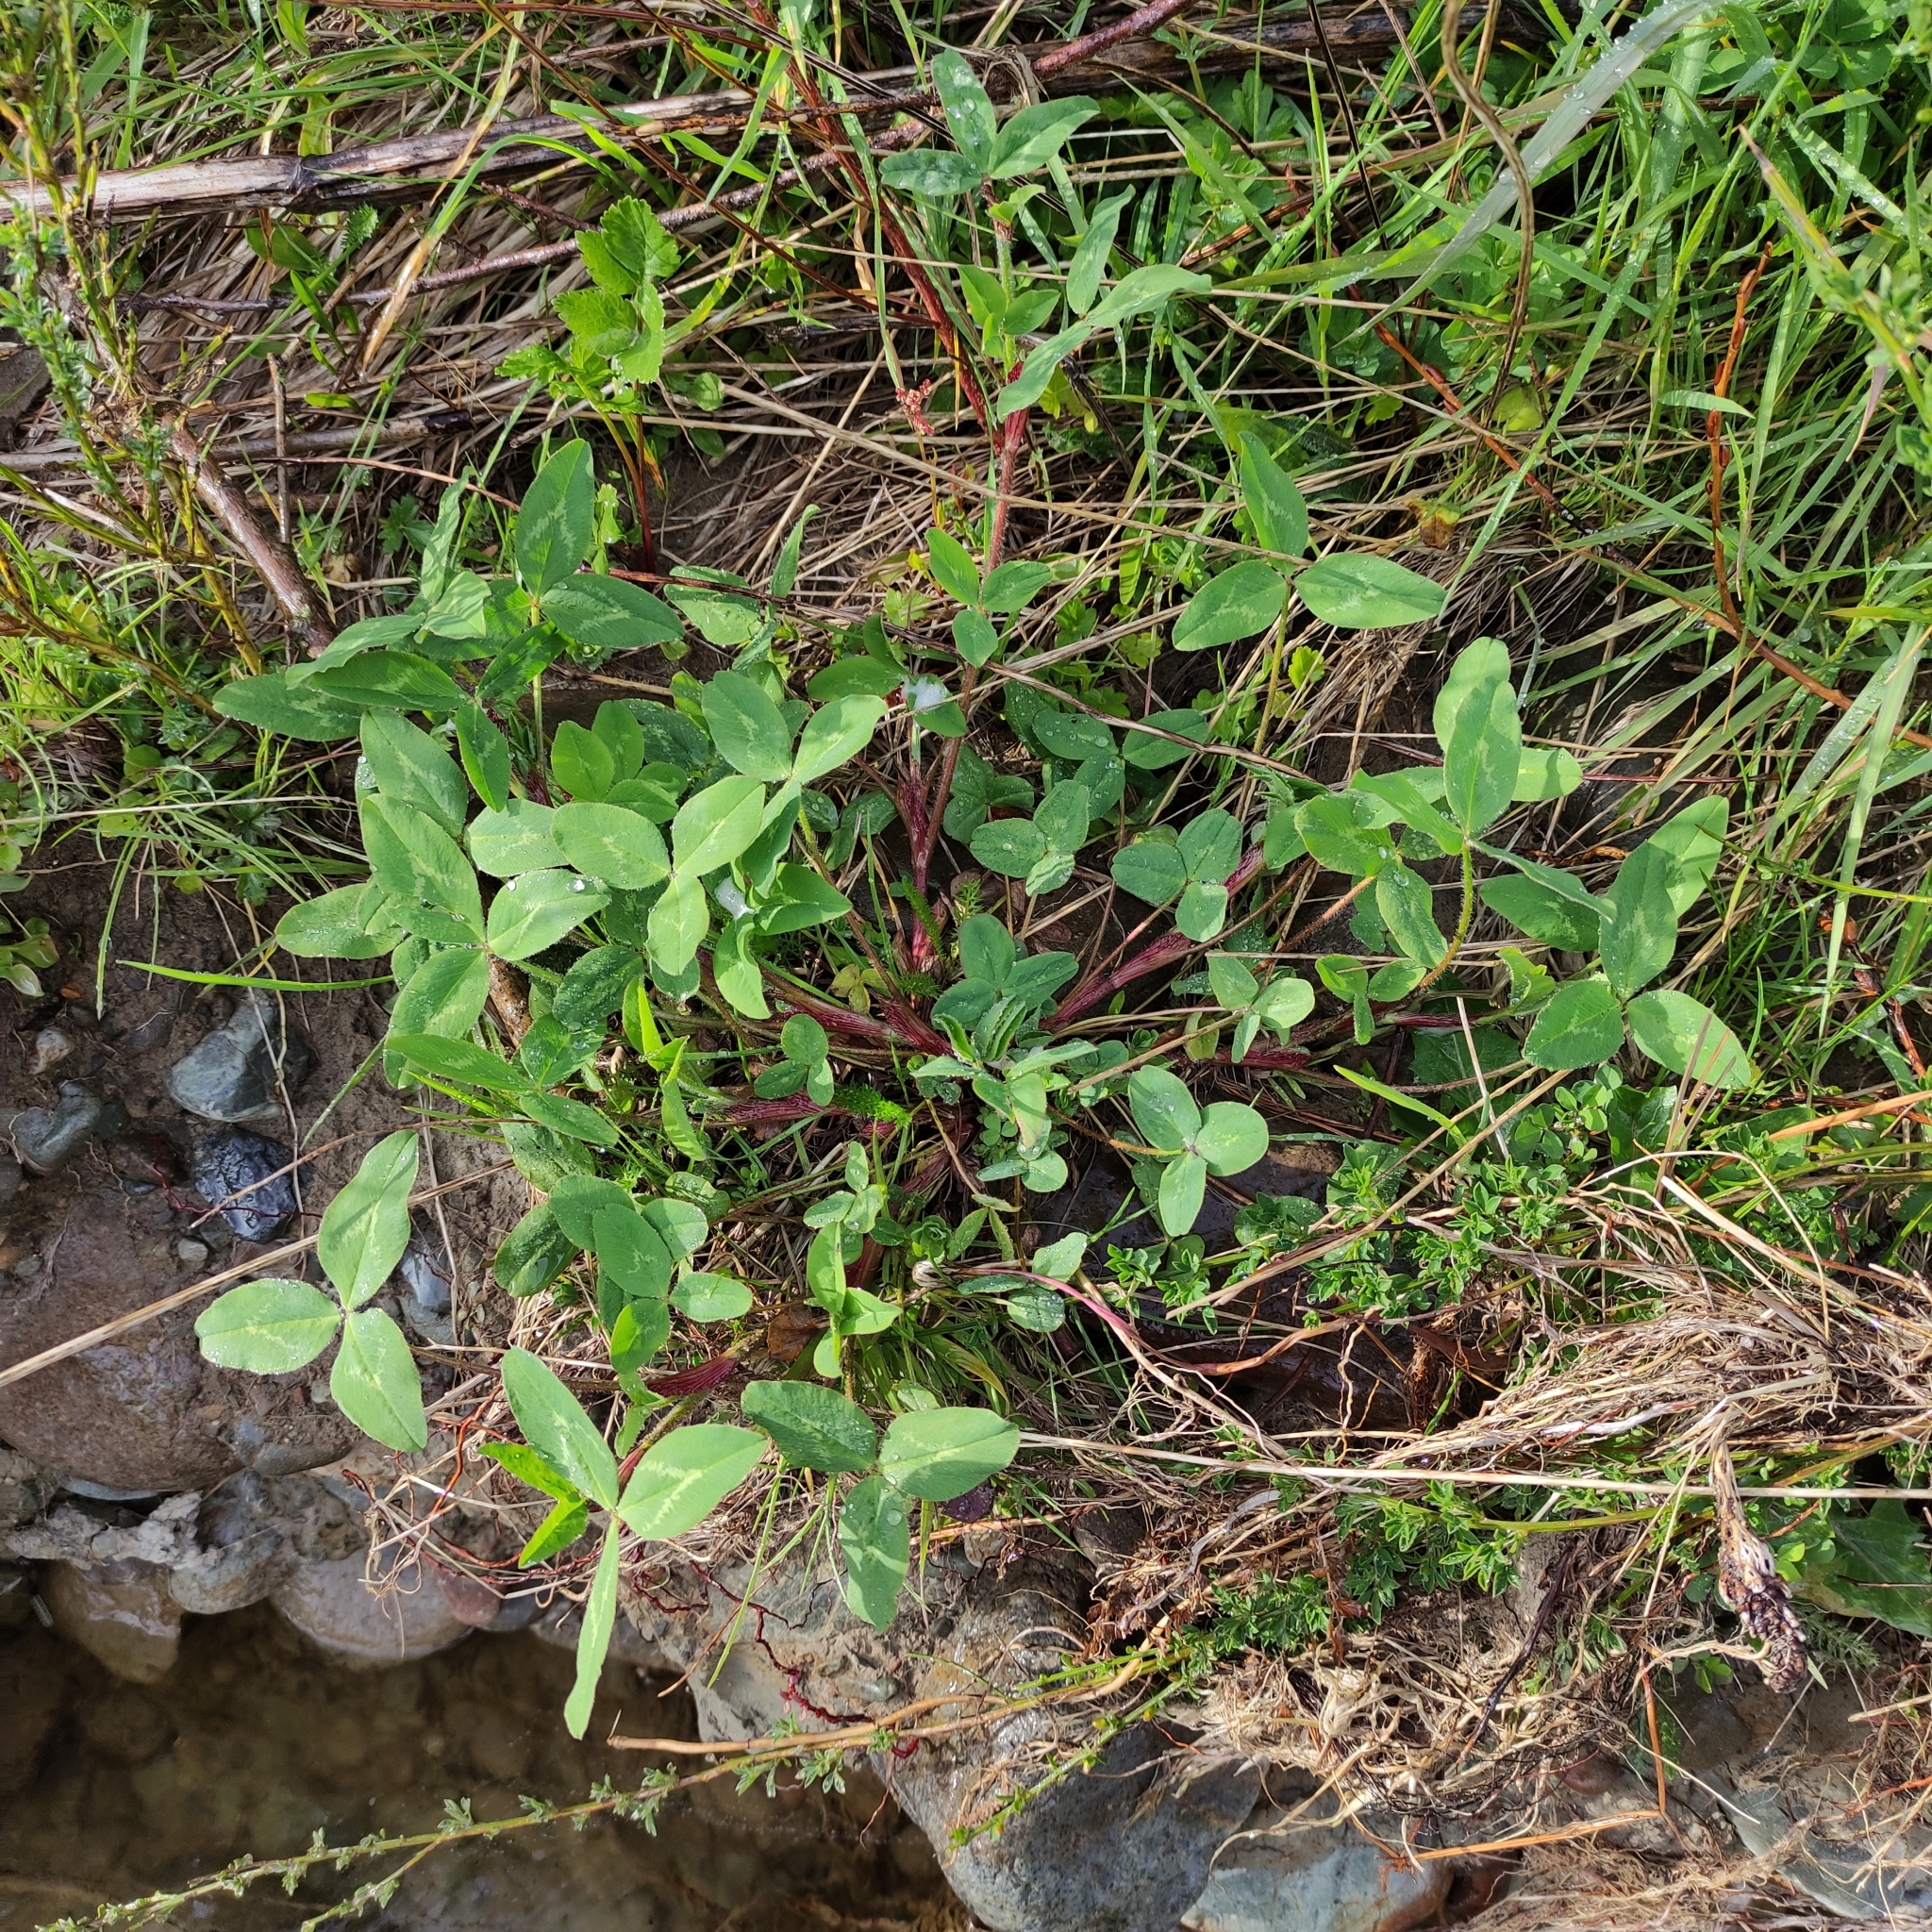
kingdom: Plantae
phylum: Tracheophyta
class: Magnoliopsida
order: Fabales
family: Fabaceae
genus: Trifolium
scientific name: Trifolium pratense
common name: Red clover
